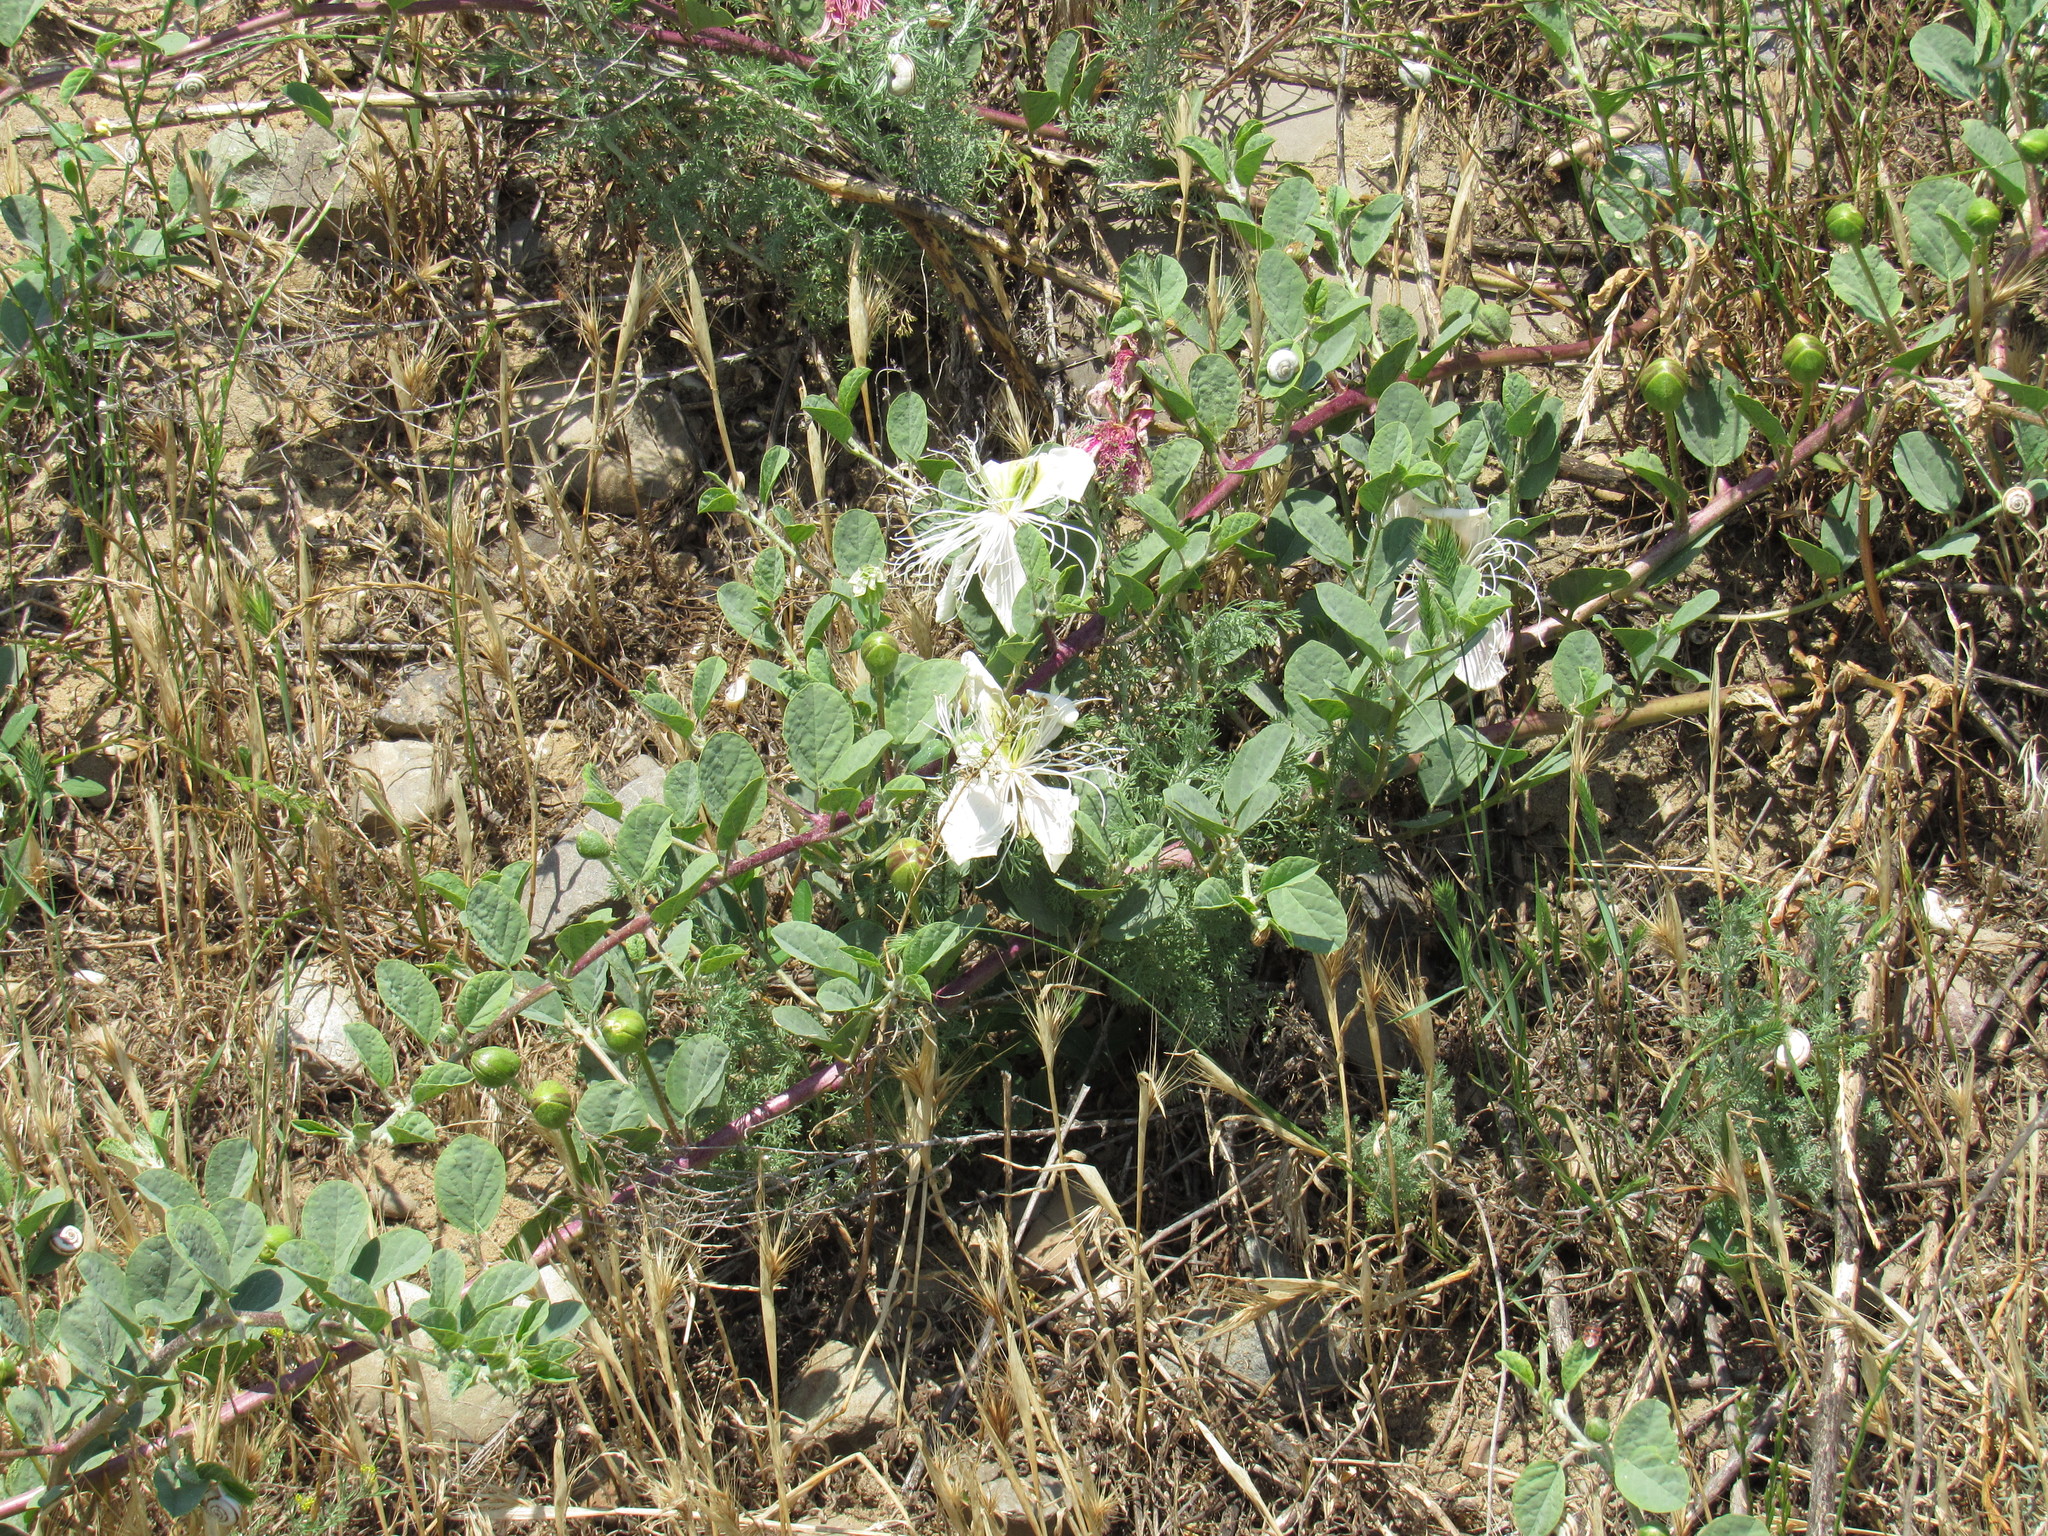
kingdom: Plantae
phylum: Tracheophyta
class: Magnoliopsida
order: Brassicales
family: Capparaceae
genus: Capparis
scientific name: Capparis spinosa
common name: Caper
